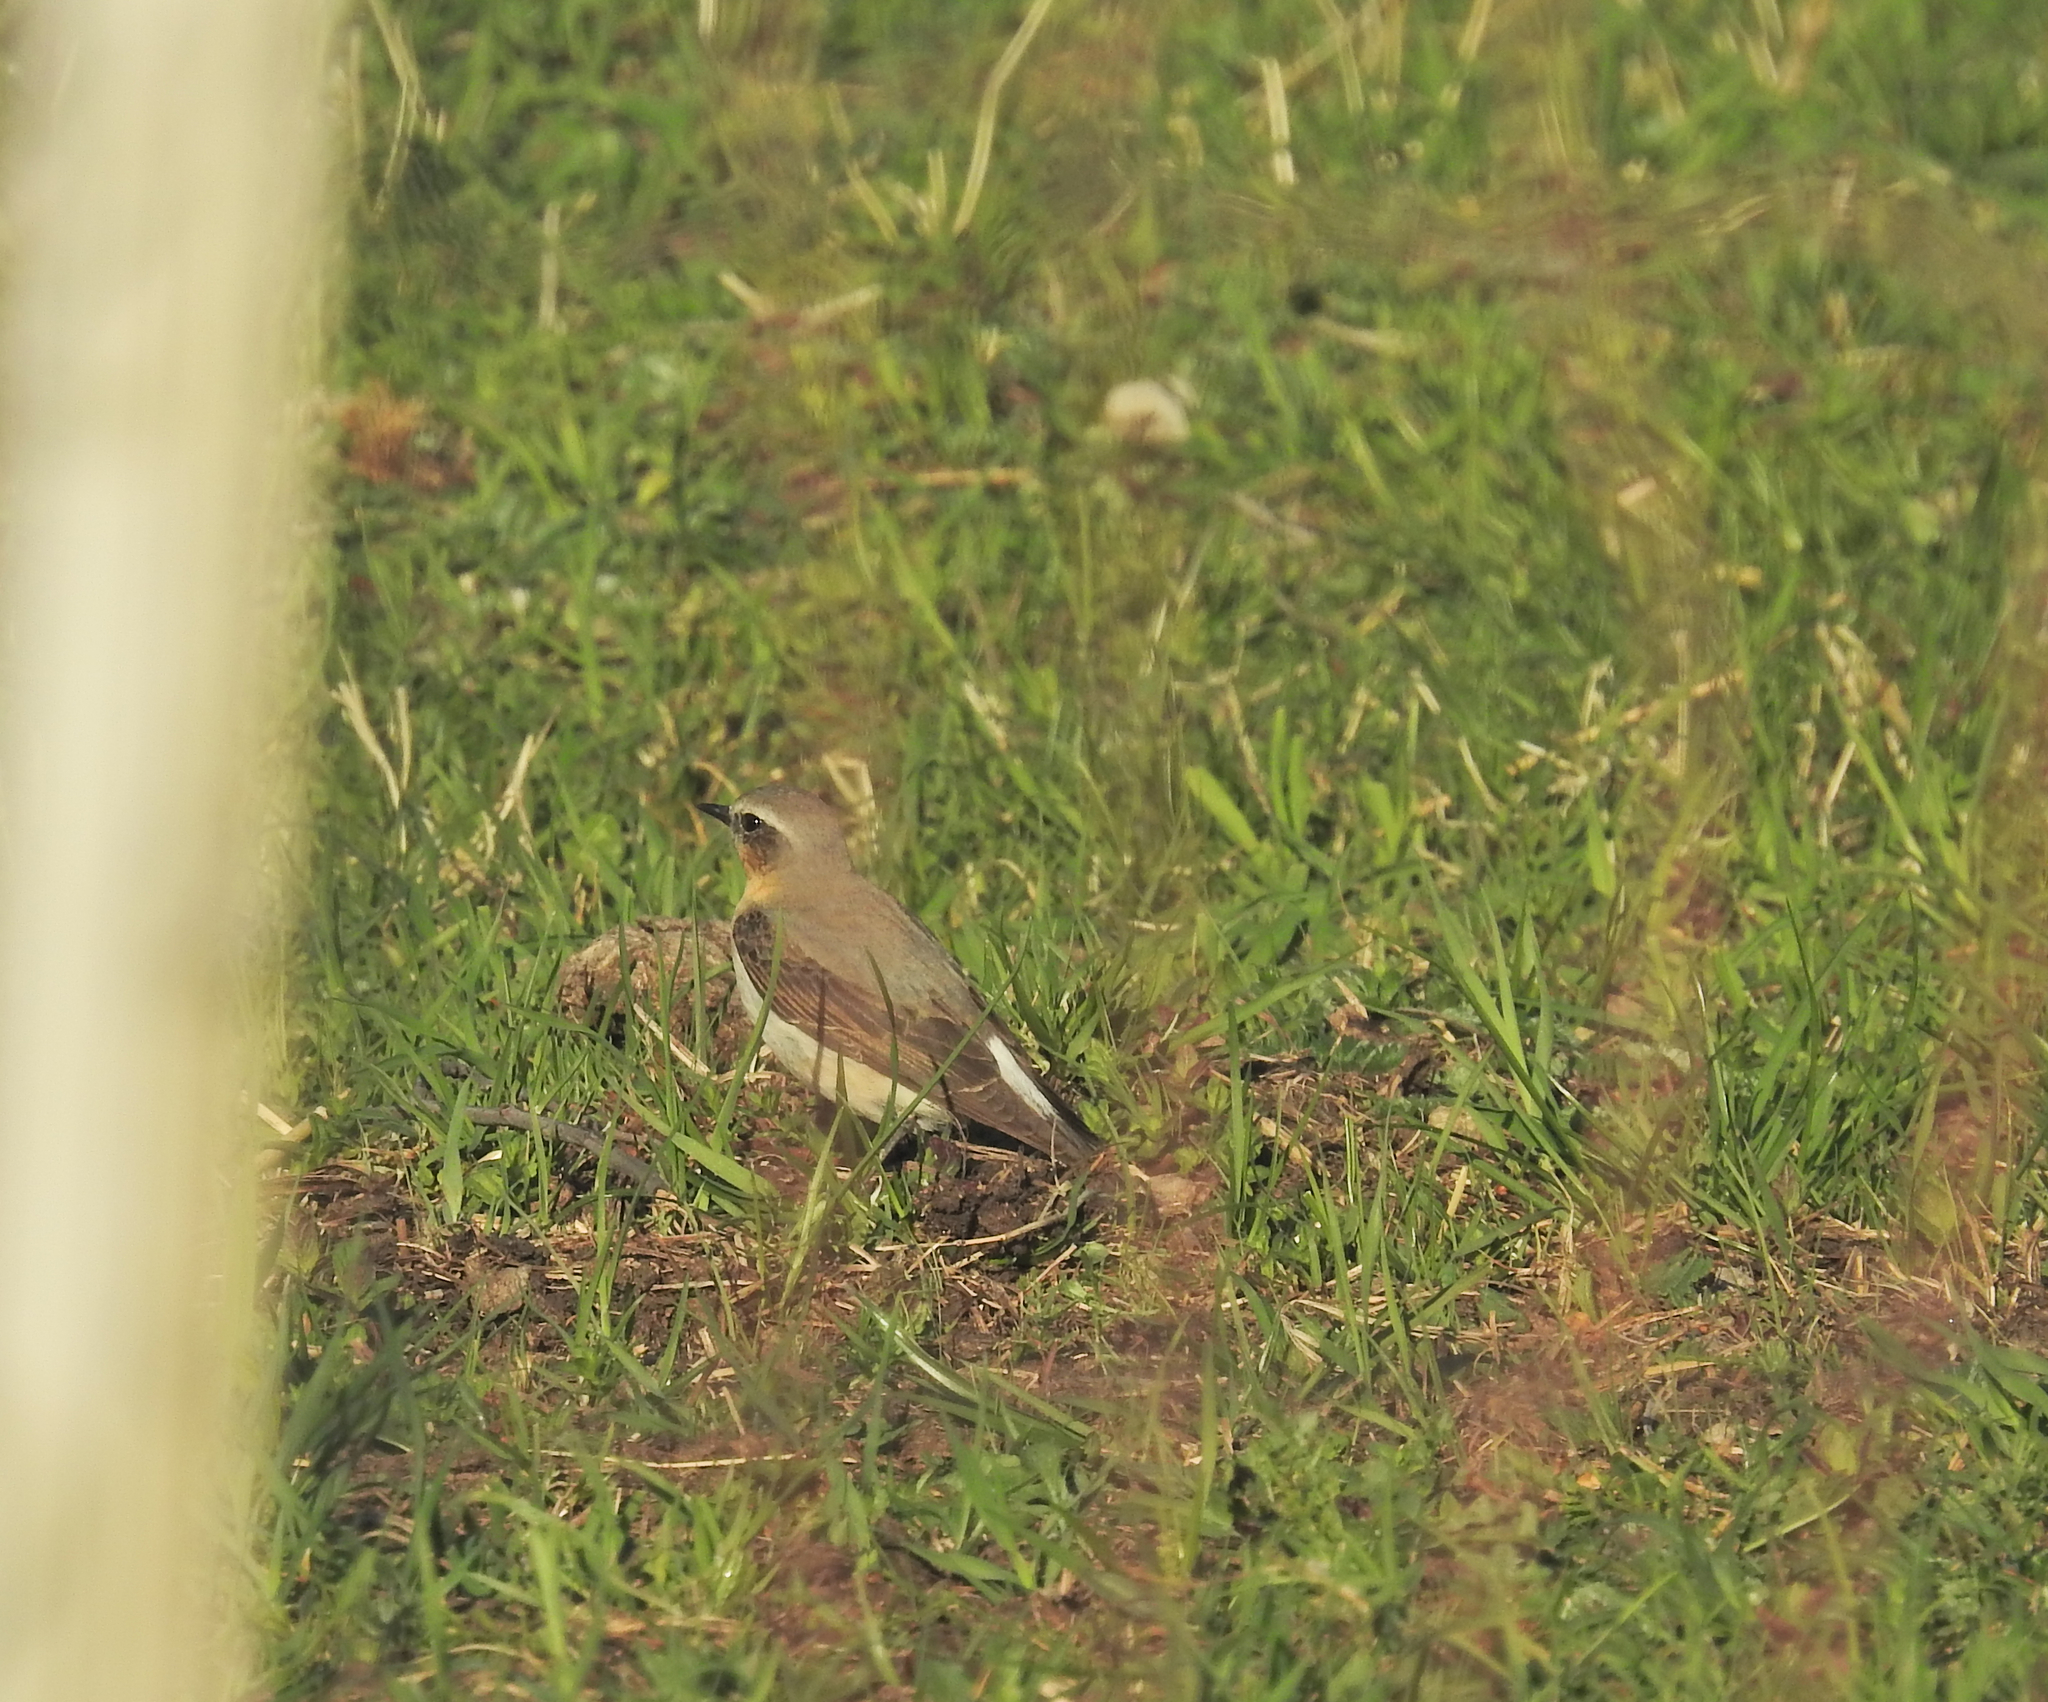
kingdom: Animalia
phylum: Chordata
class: Aves
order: Passeriformes
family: Muscicapidae
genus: Oenanthe
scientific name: Oenanthe oenanthe
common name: Northern wheatear
